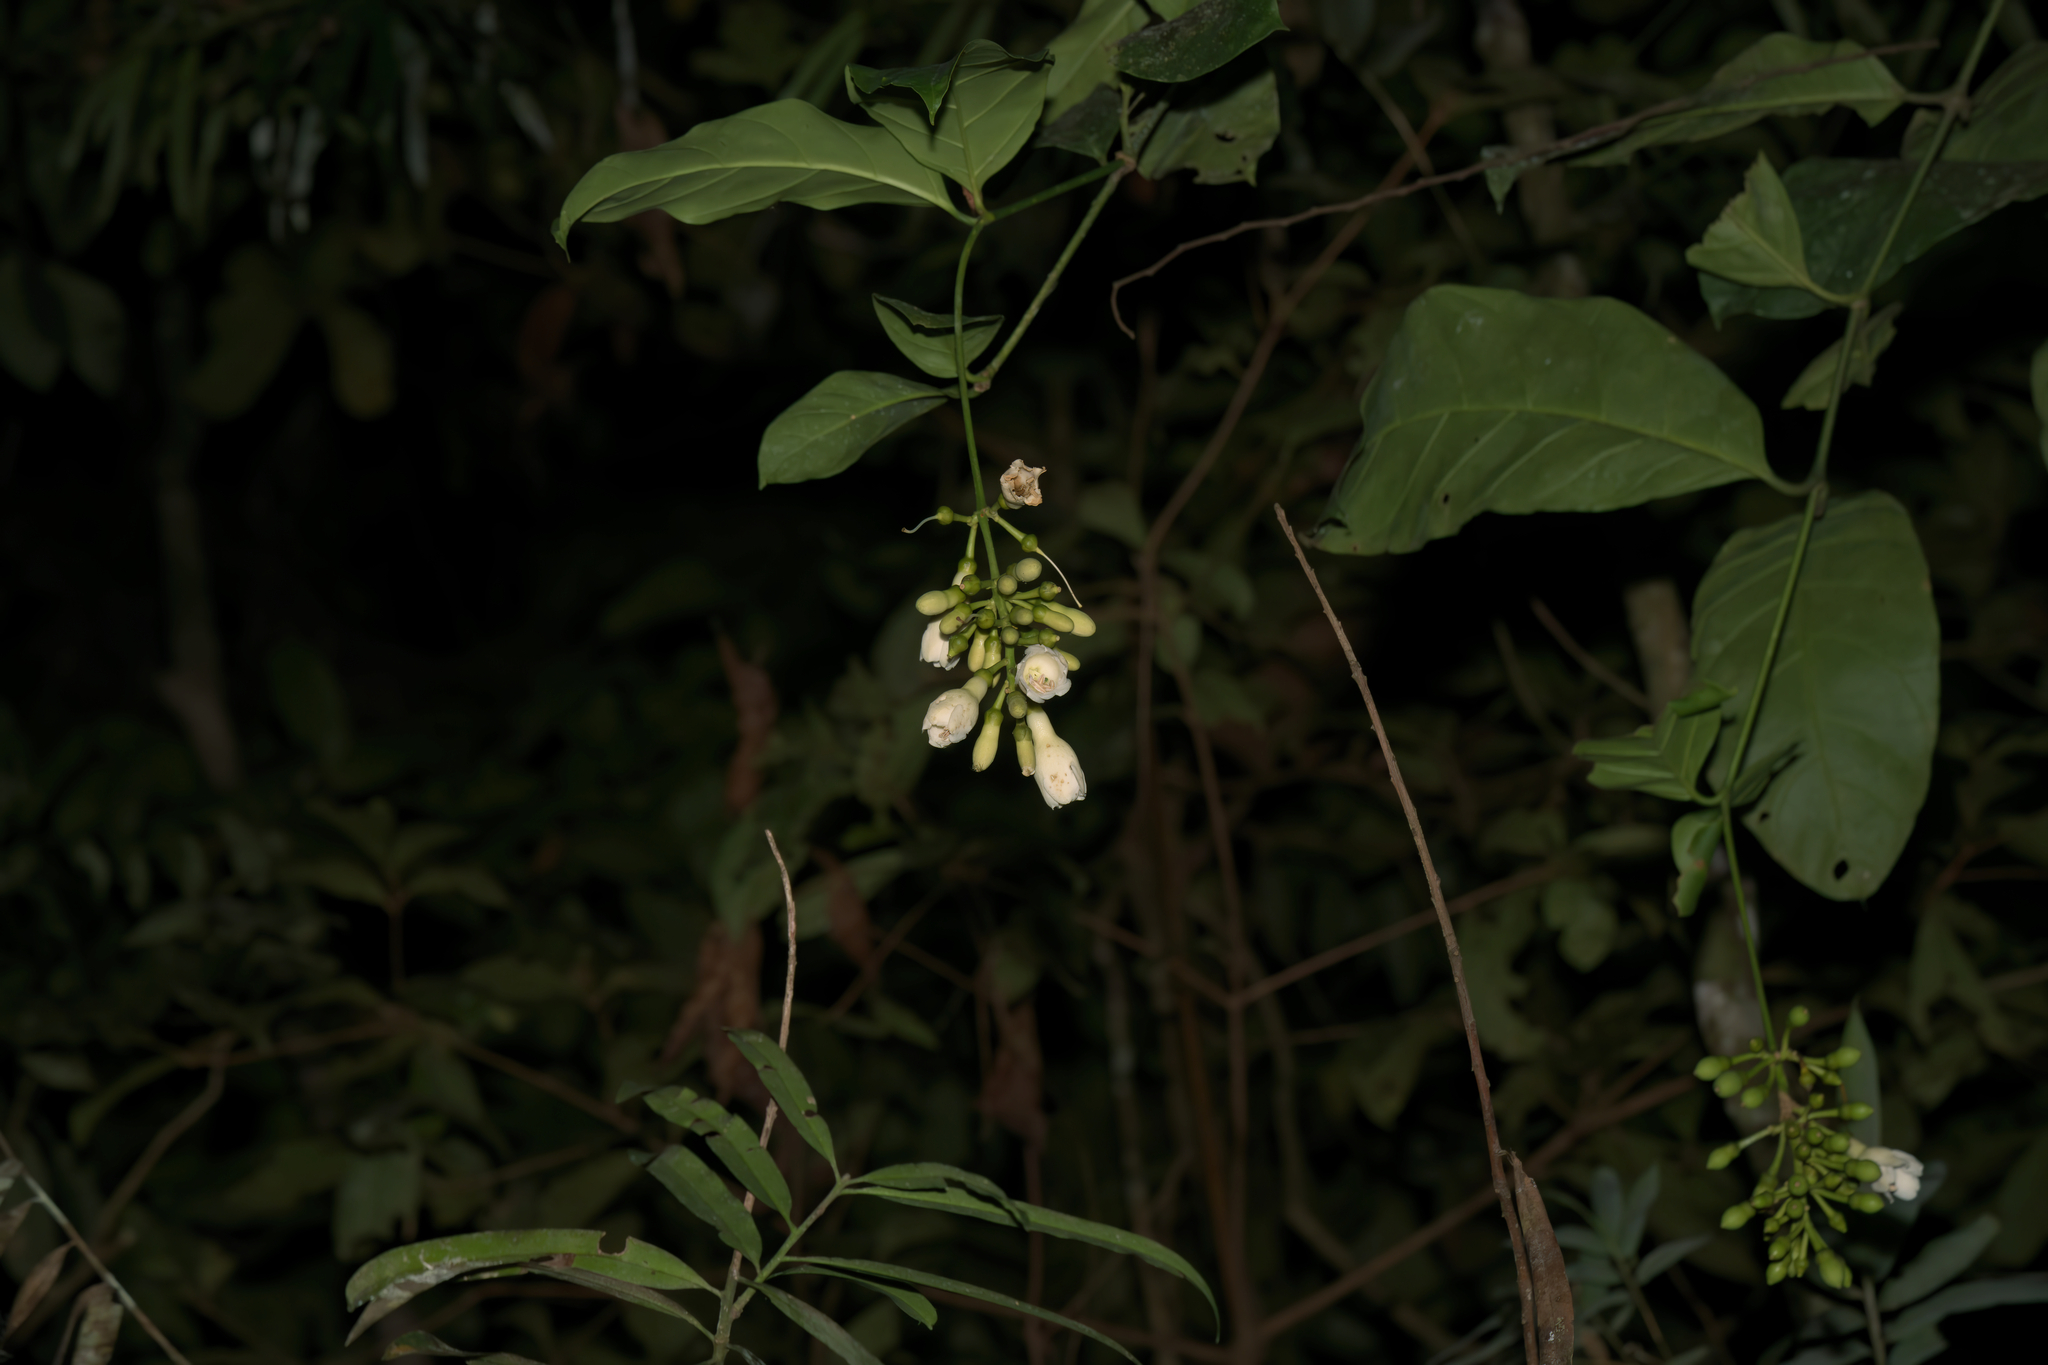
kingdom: Plantae
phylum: Tracheophyta
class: Magnoliopsida
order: Gentianales
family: Gentianaceae
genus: Utania
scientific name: Utania cuspidata
